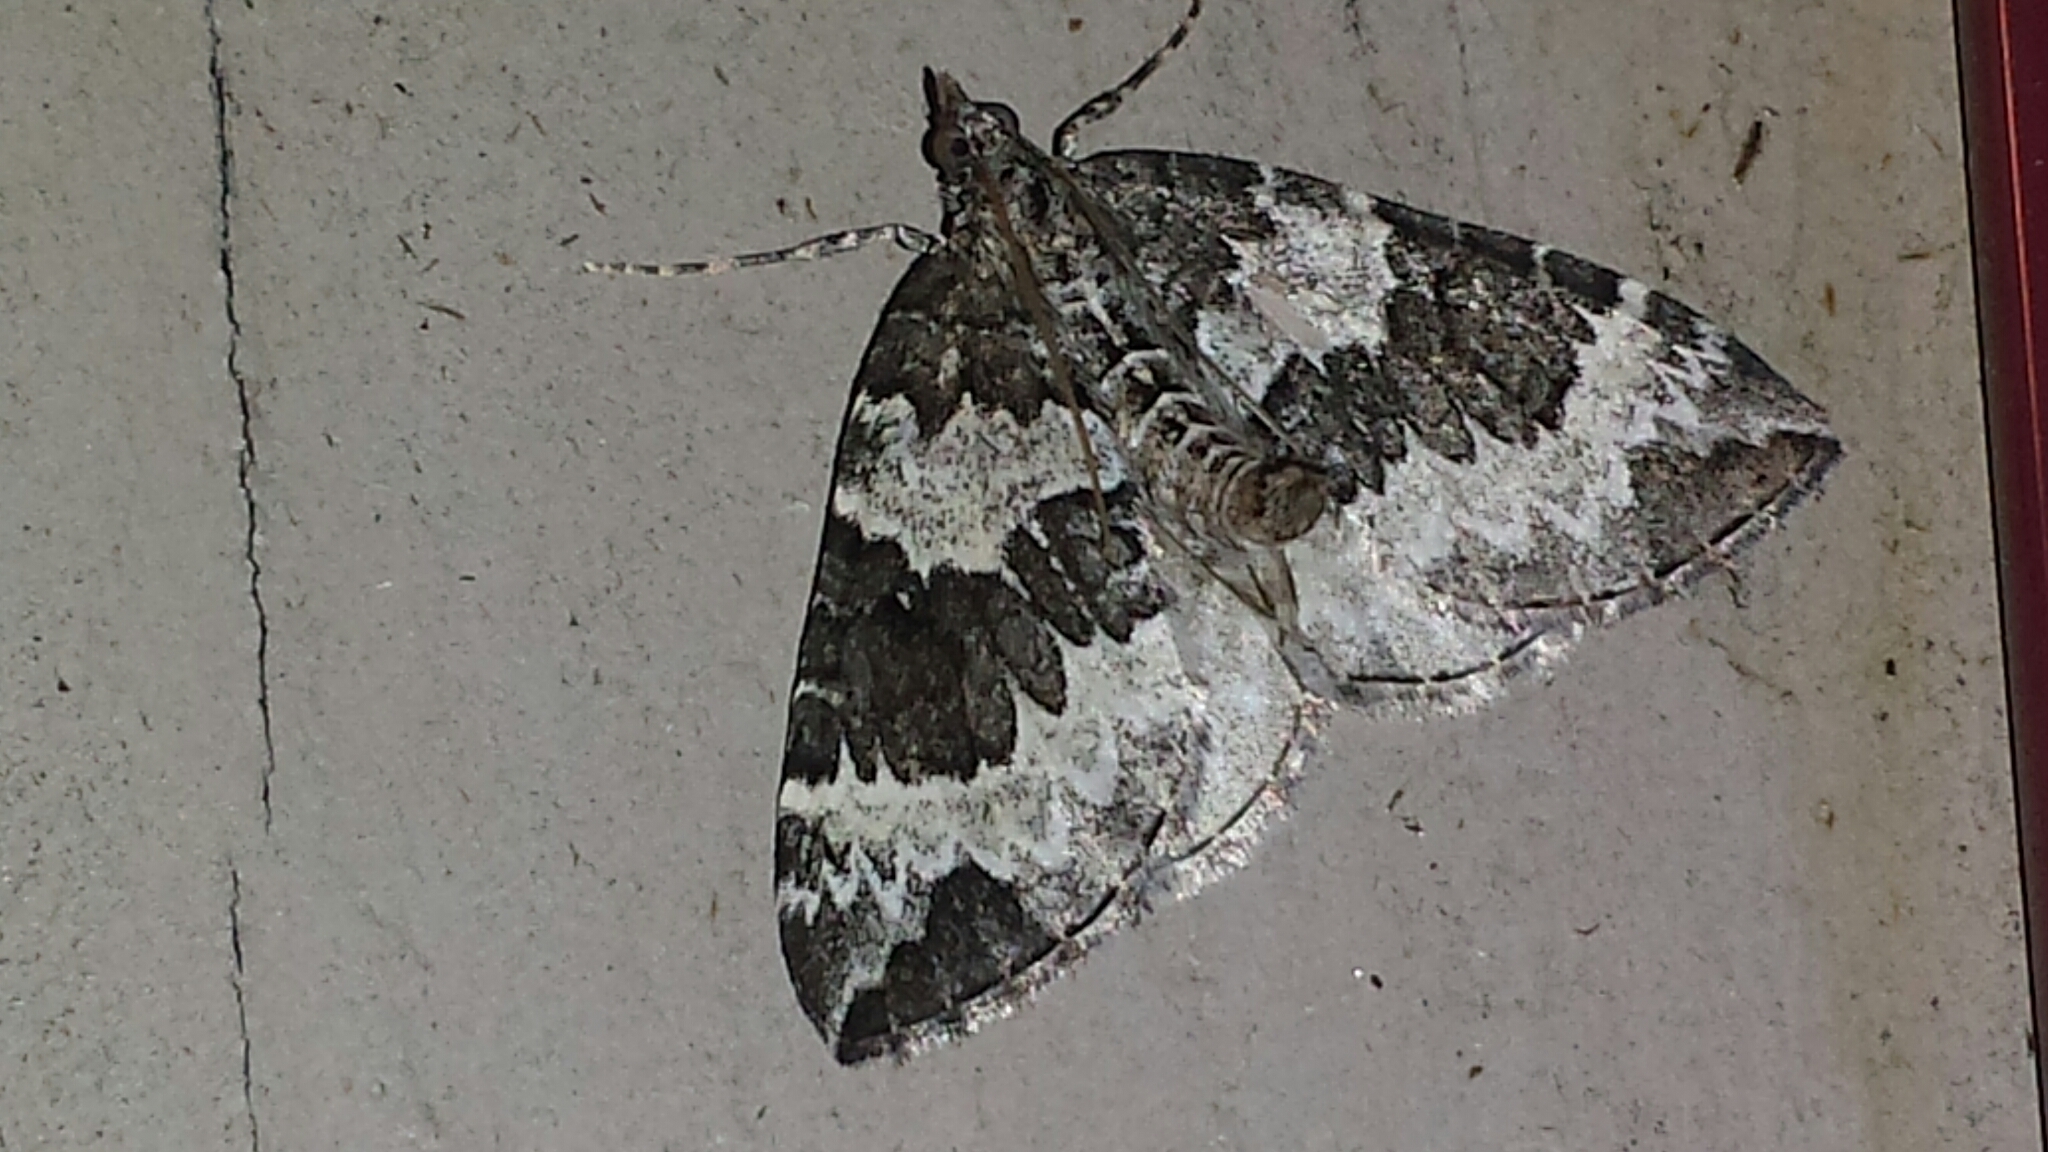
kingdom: Animalia
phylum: Arthropoda
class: Insecta
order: Lepidoptera
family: Geometridae
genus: Eulithis
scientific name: Eulithis explanata
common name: White eulithis
